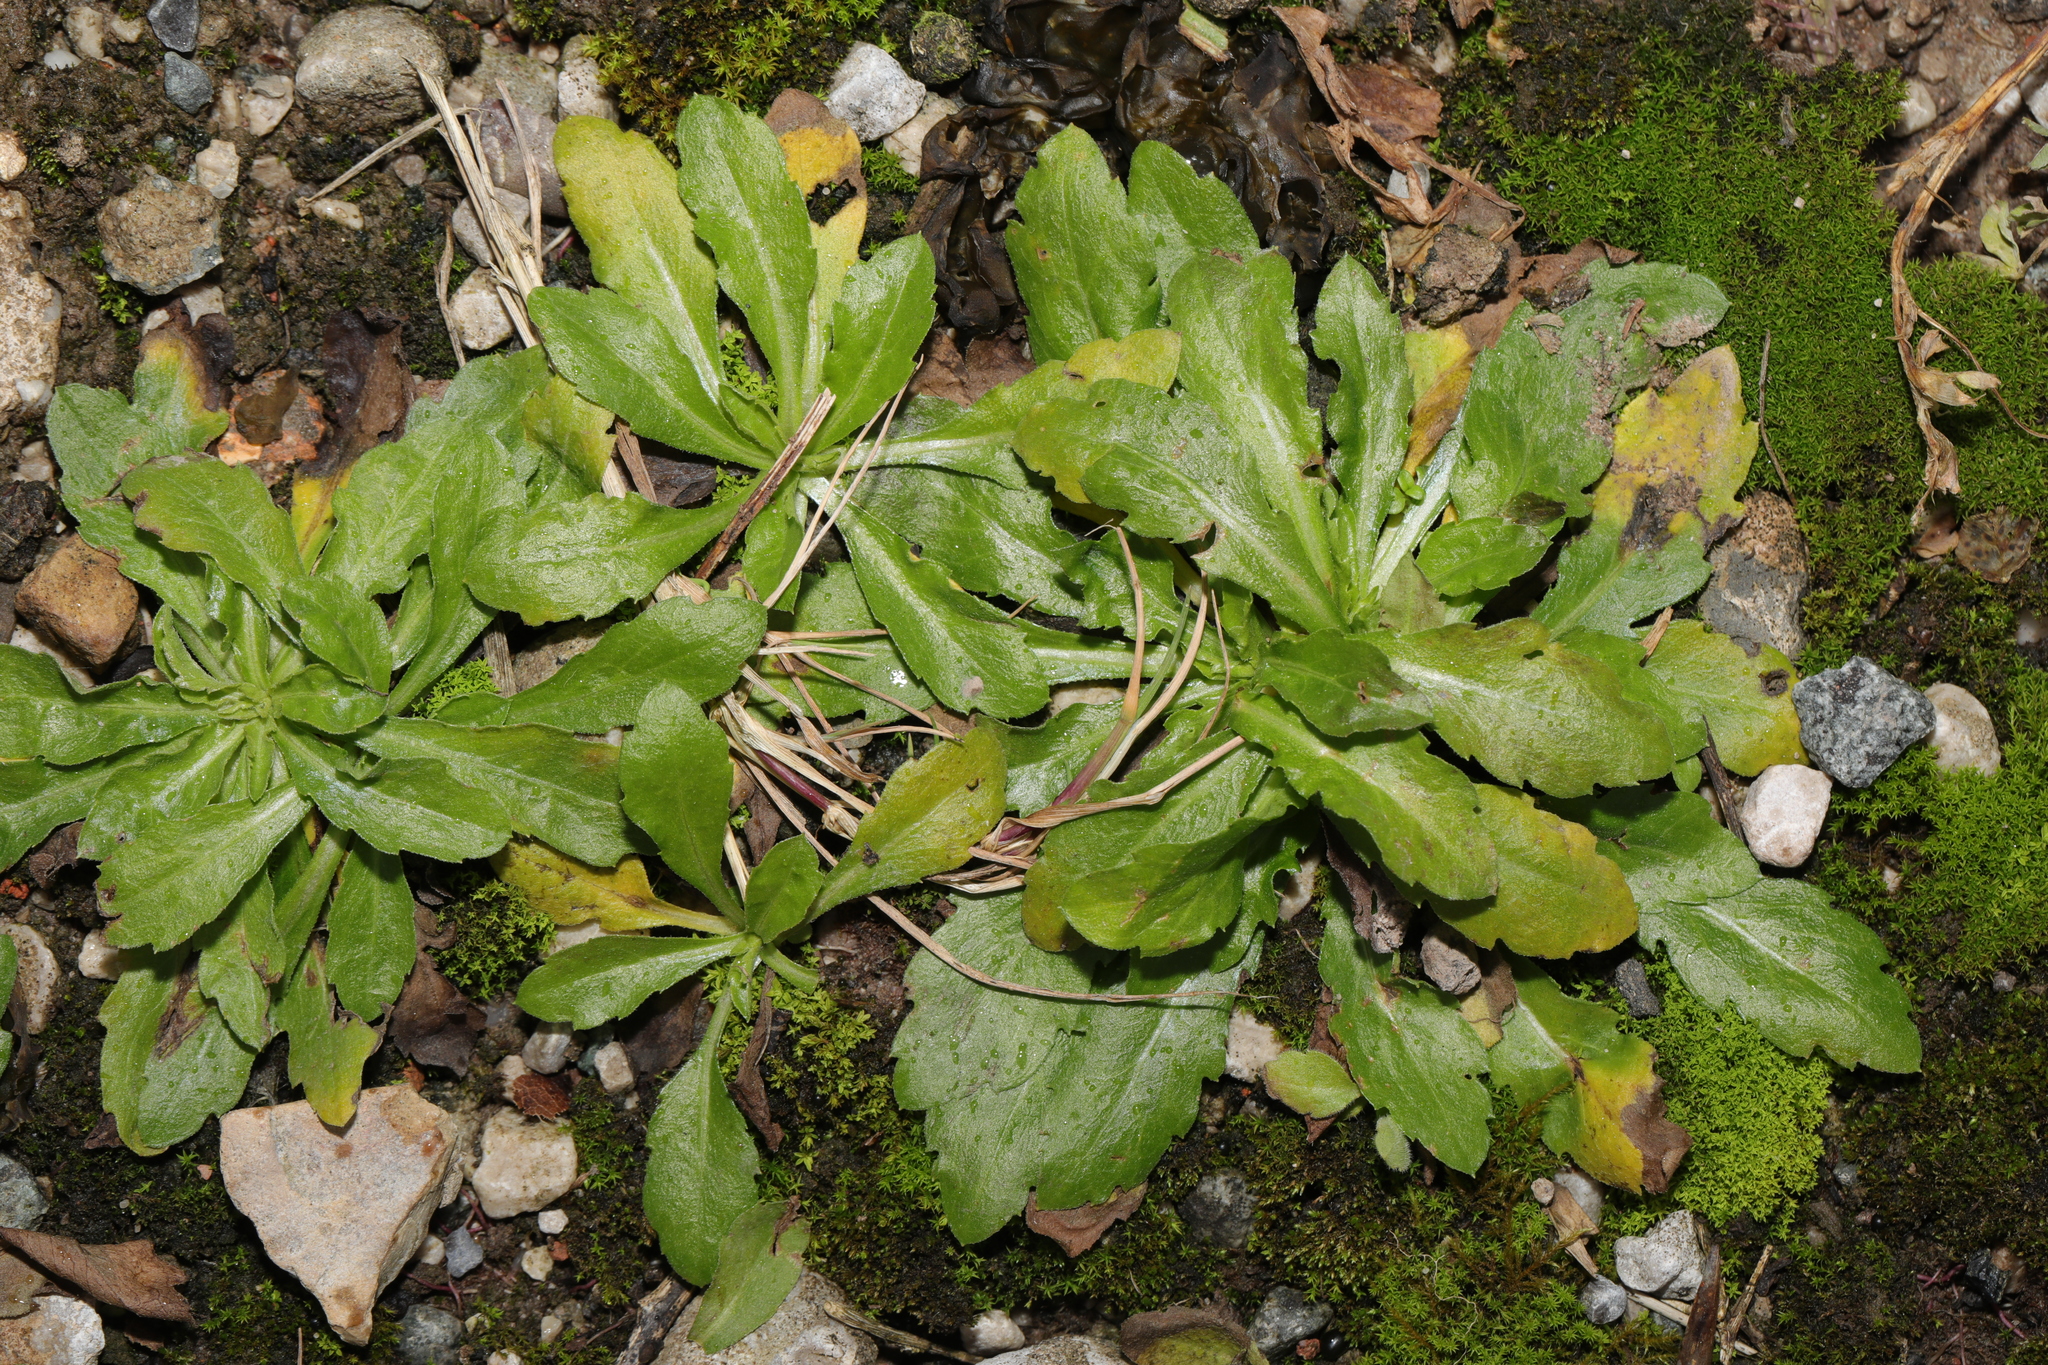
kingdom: Plantae
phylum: Tracheophyta
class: Magnoliopsida
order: Asterales
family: Asteraceae
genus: Erigeron
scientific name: Erigeron sumatrensis
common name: Daisy
